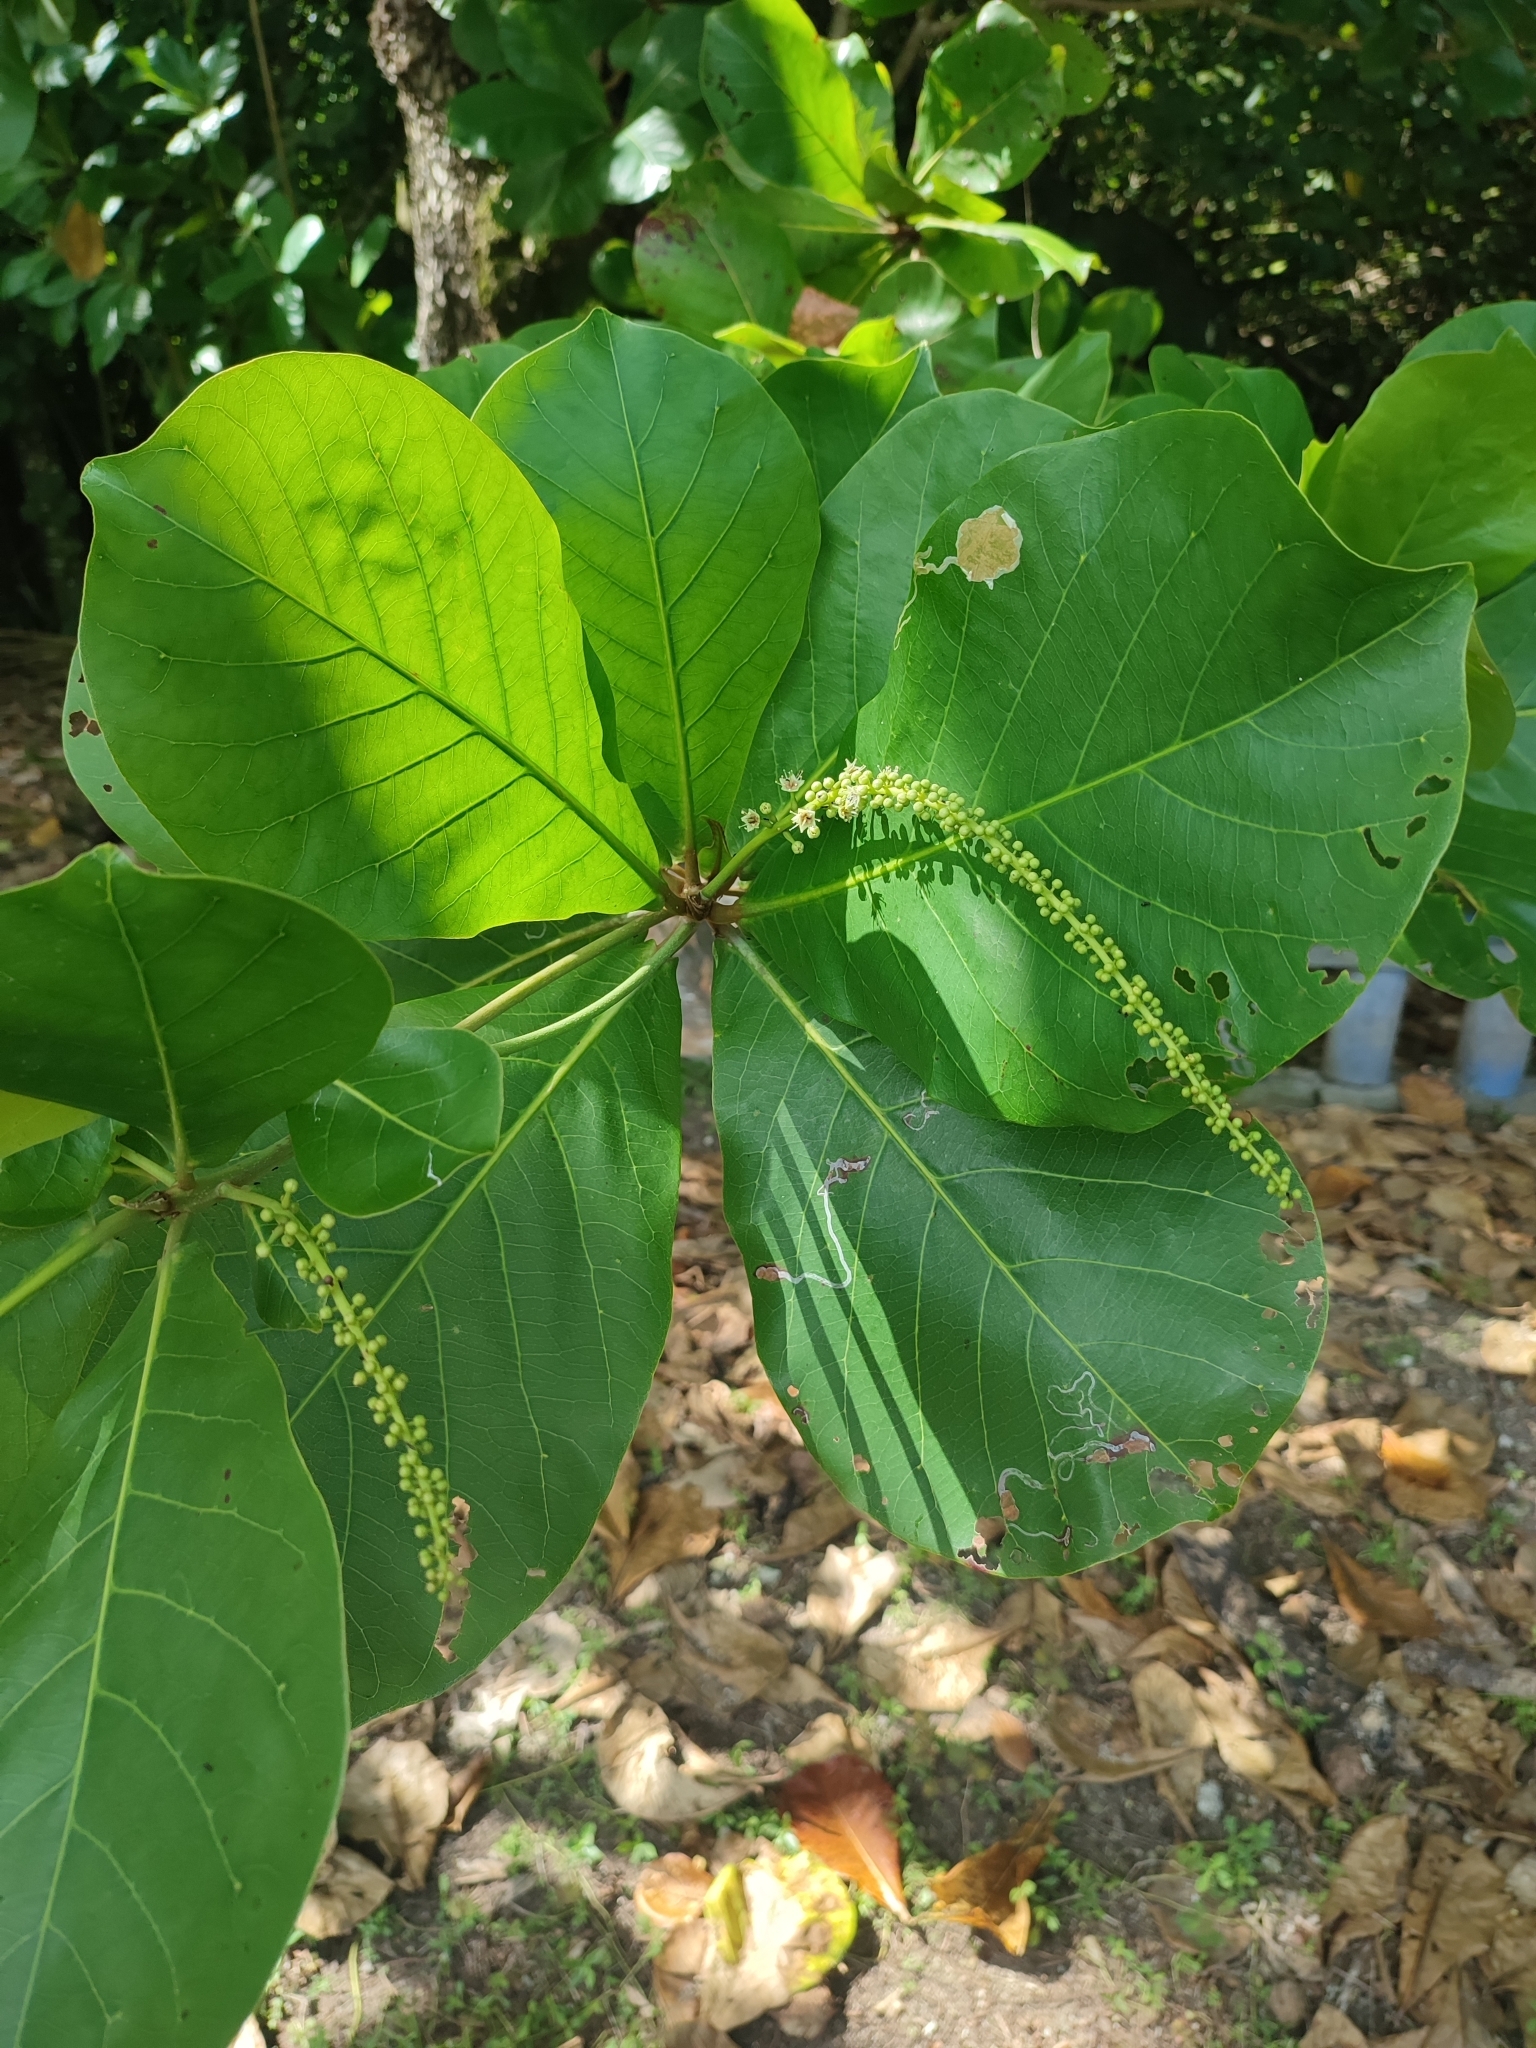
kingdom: Plantae
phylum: Tracheophyta
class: Magnoliopsida
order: Myrtales
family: Combretaceae
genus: Terminalia
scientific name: Terminalia catappa
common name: Tropical almond
